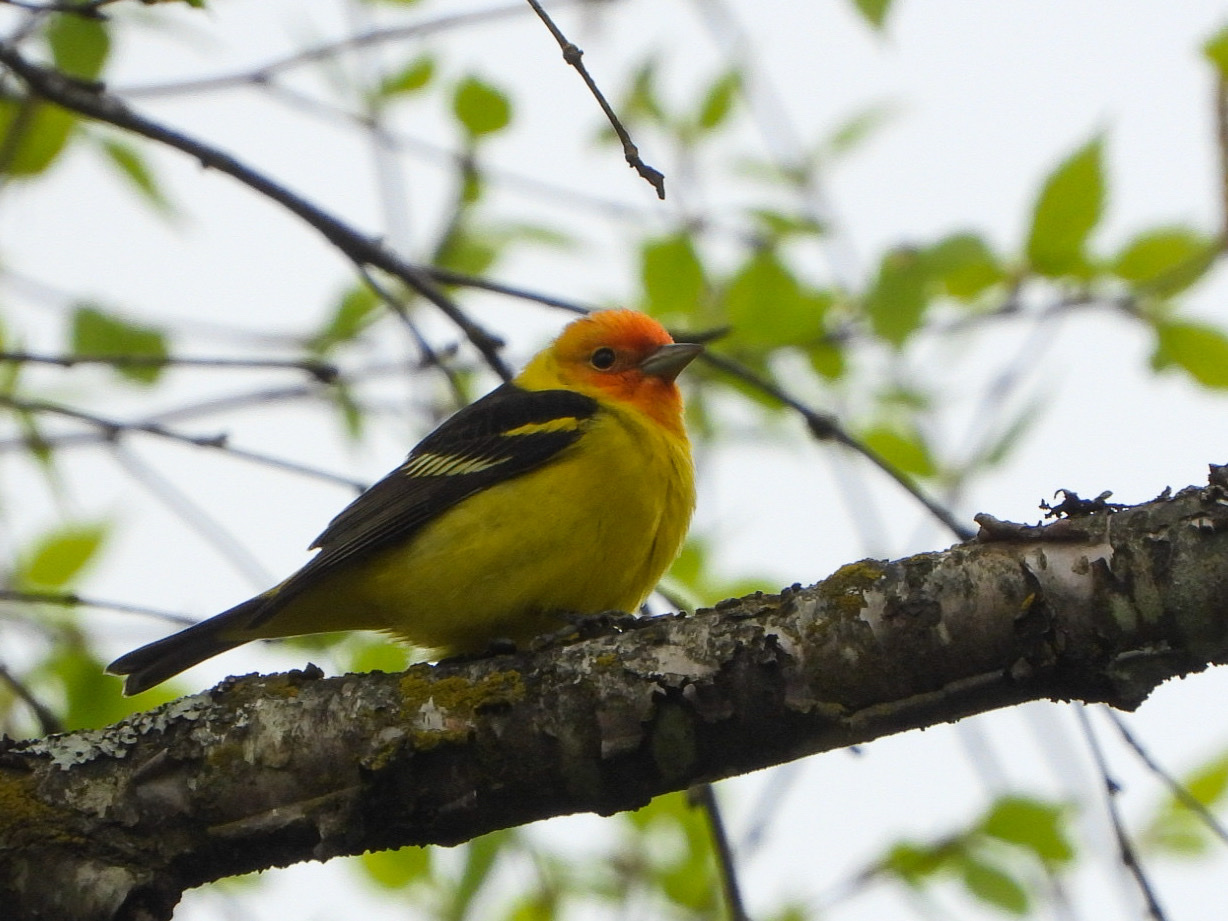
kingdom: Animalia
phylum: Chordata
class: Aves
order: Passeriformes
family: Cardinalidae
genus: Piranga
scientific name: Piranga ludoviciana
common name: Western tanager
